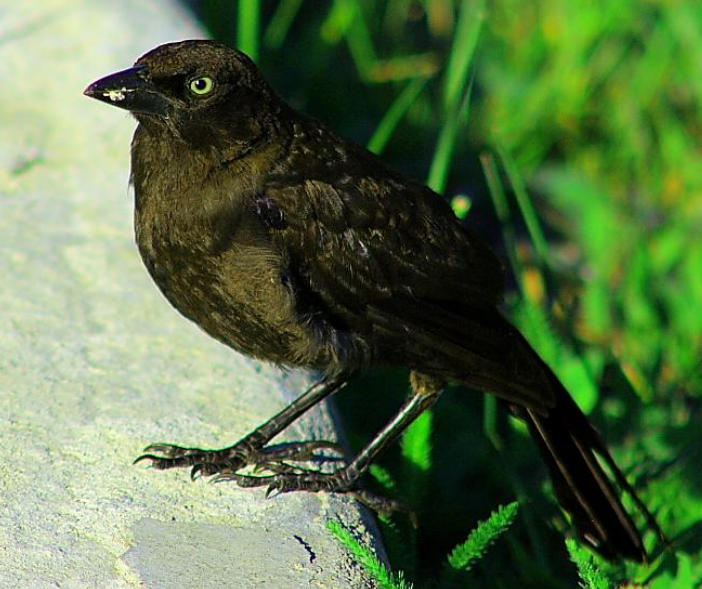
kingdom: Animalia
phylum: Chordata
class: Aves
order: Passeriformes
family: Icteridae
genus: Quiscalus
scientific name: Quiscalus quiscula
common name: Common grackle
